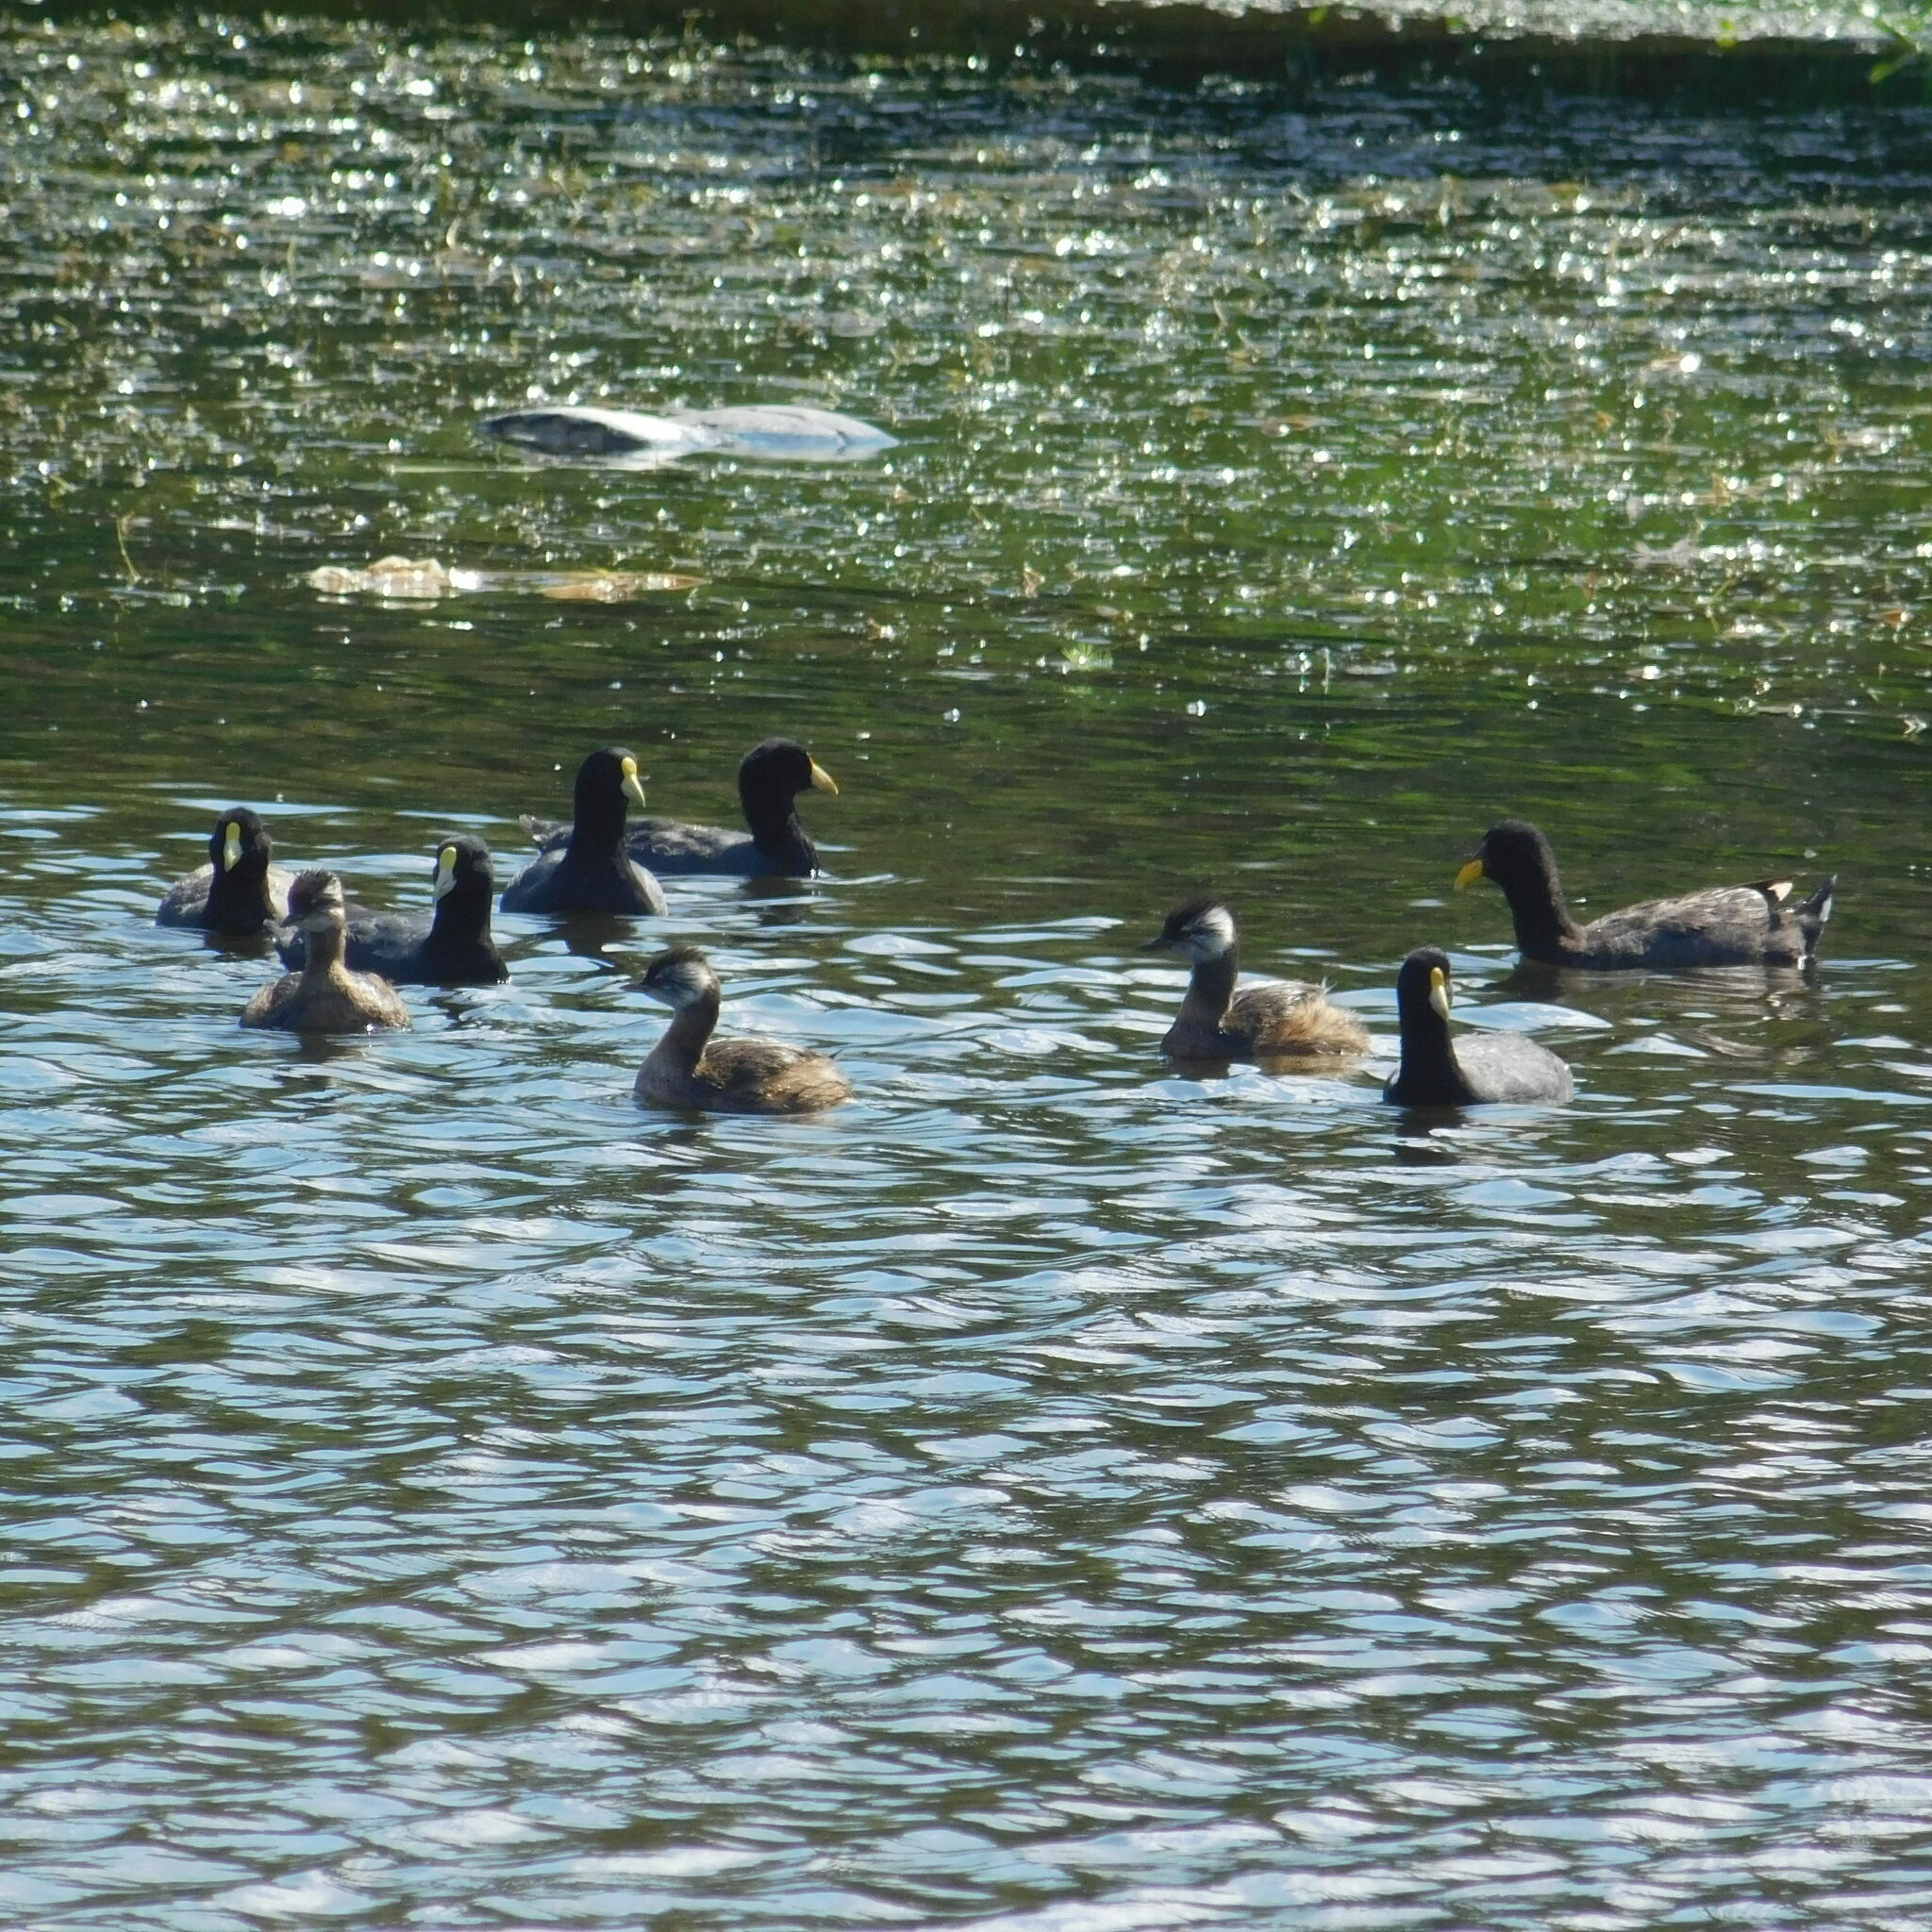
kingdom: Animalia
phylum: Chordata
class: Aves
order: Gruiformes
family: Rallidae
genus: Fulica
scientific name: Fulica leucoptera
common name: White-winged coot
